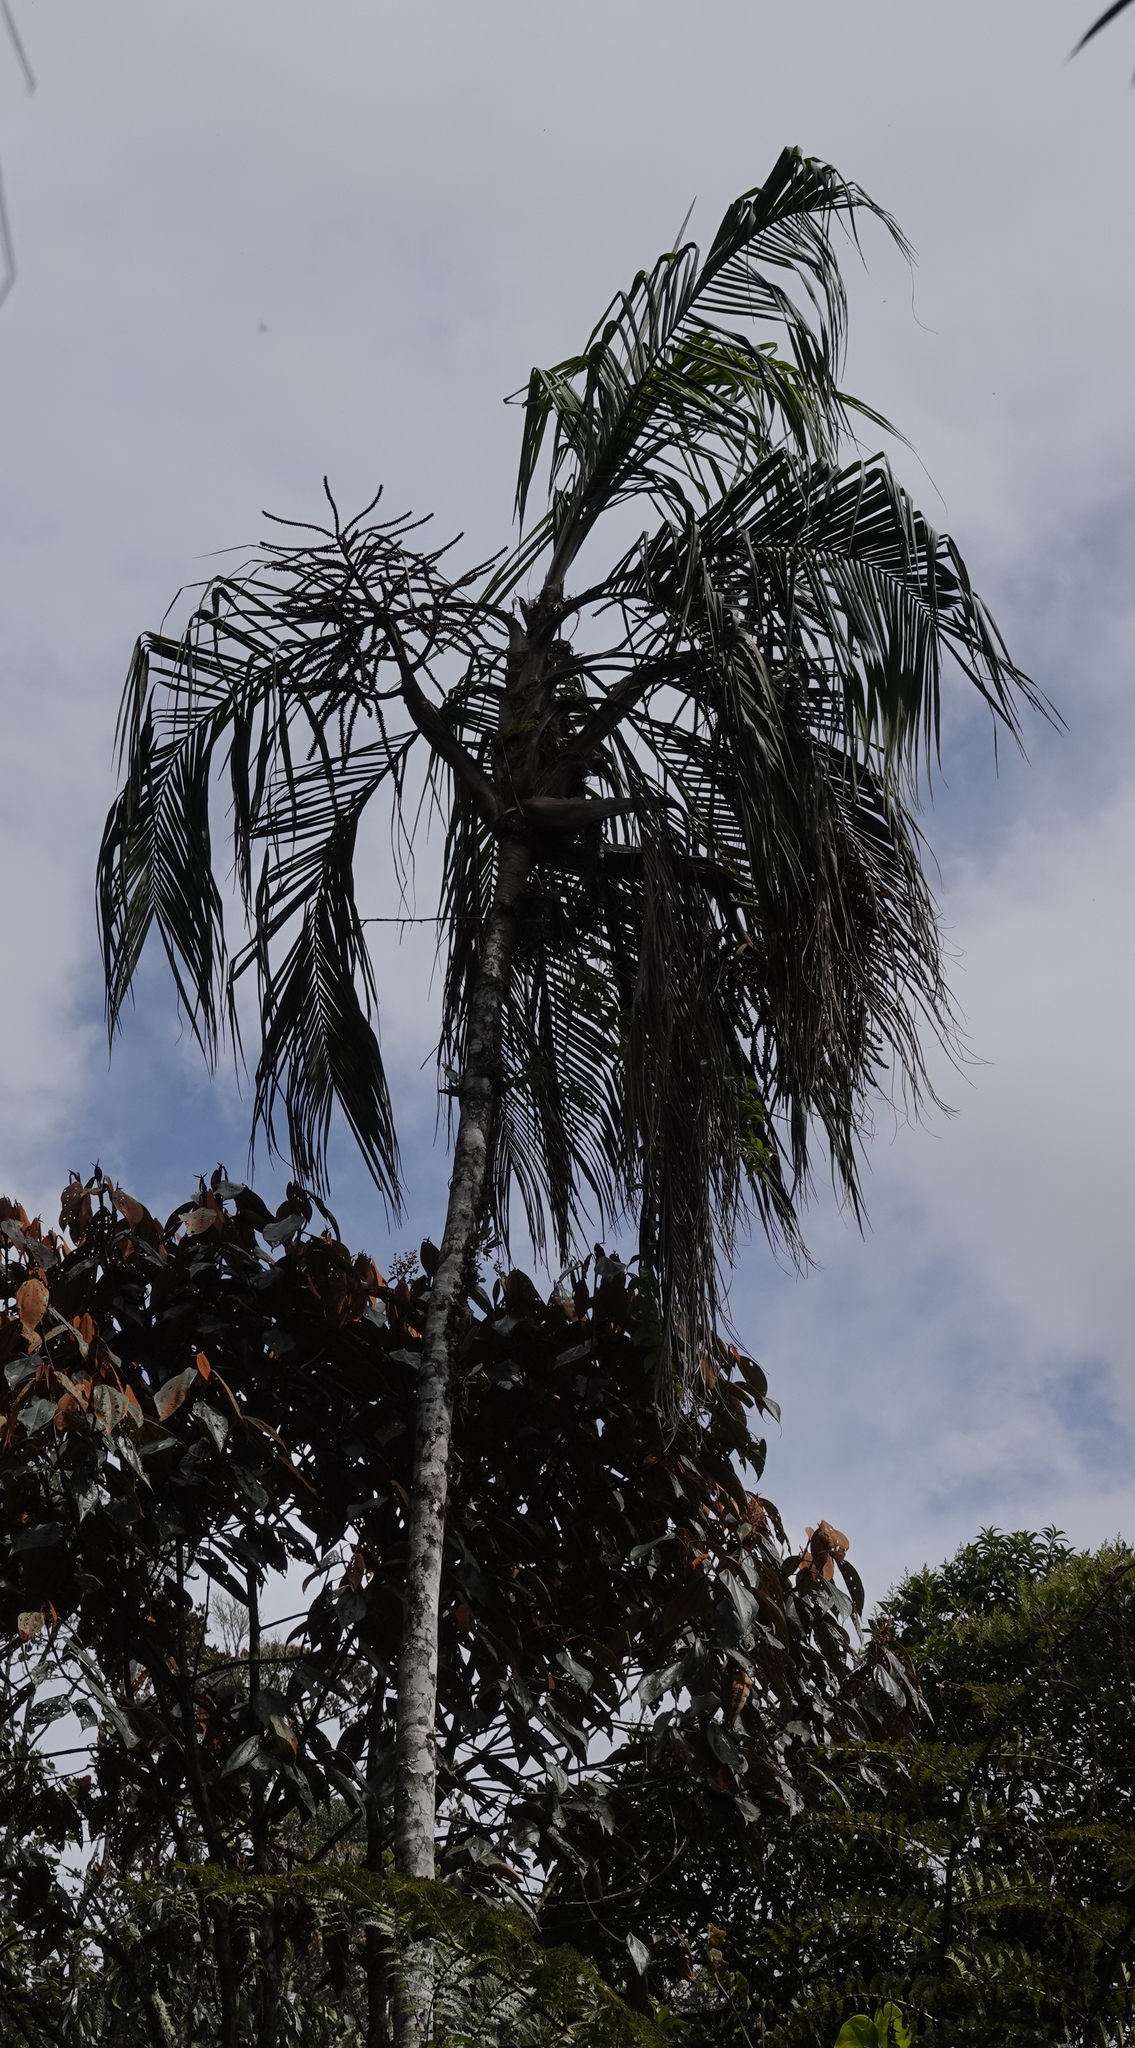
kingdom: Plantae
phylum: Tracheophyta
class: Liliopsida
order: Arecales
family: Arecaceae
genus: Ceroxylon
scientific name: Ceroxylon vogelianum
